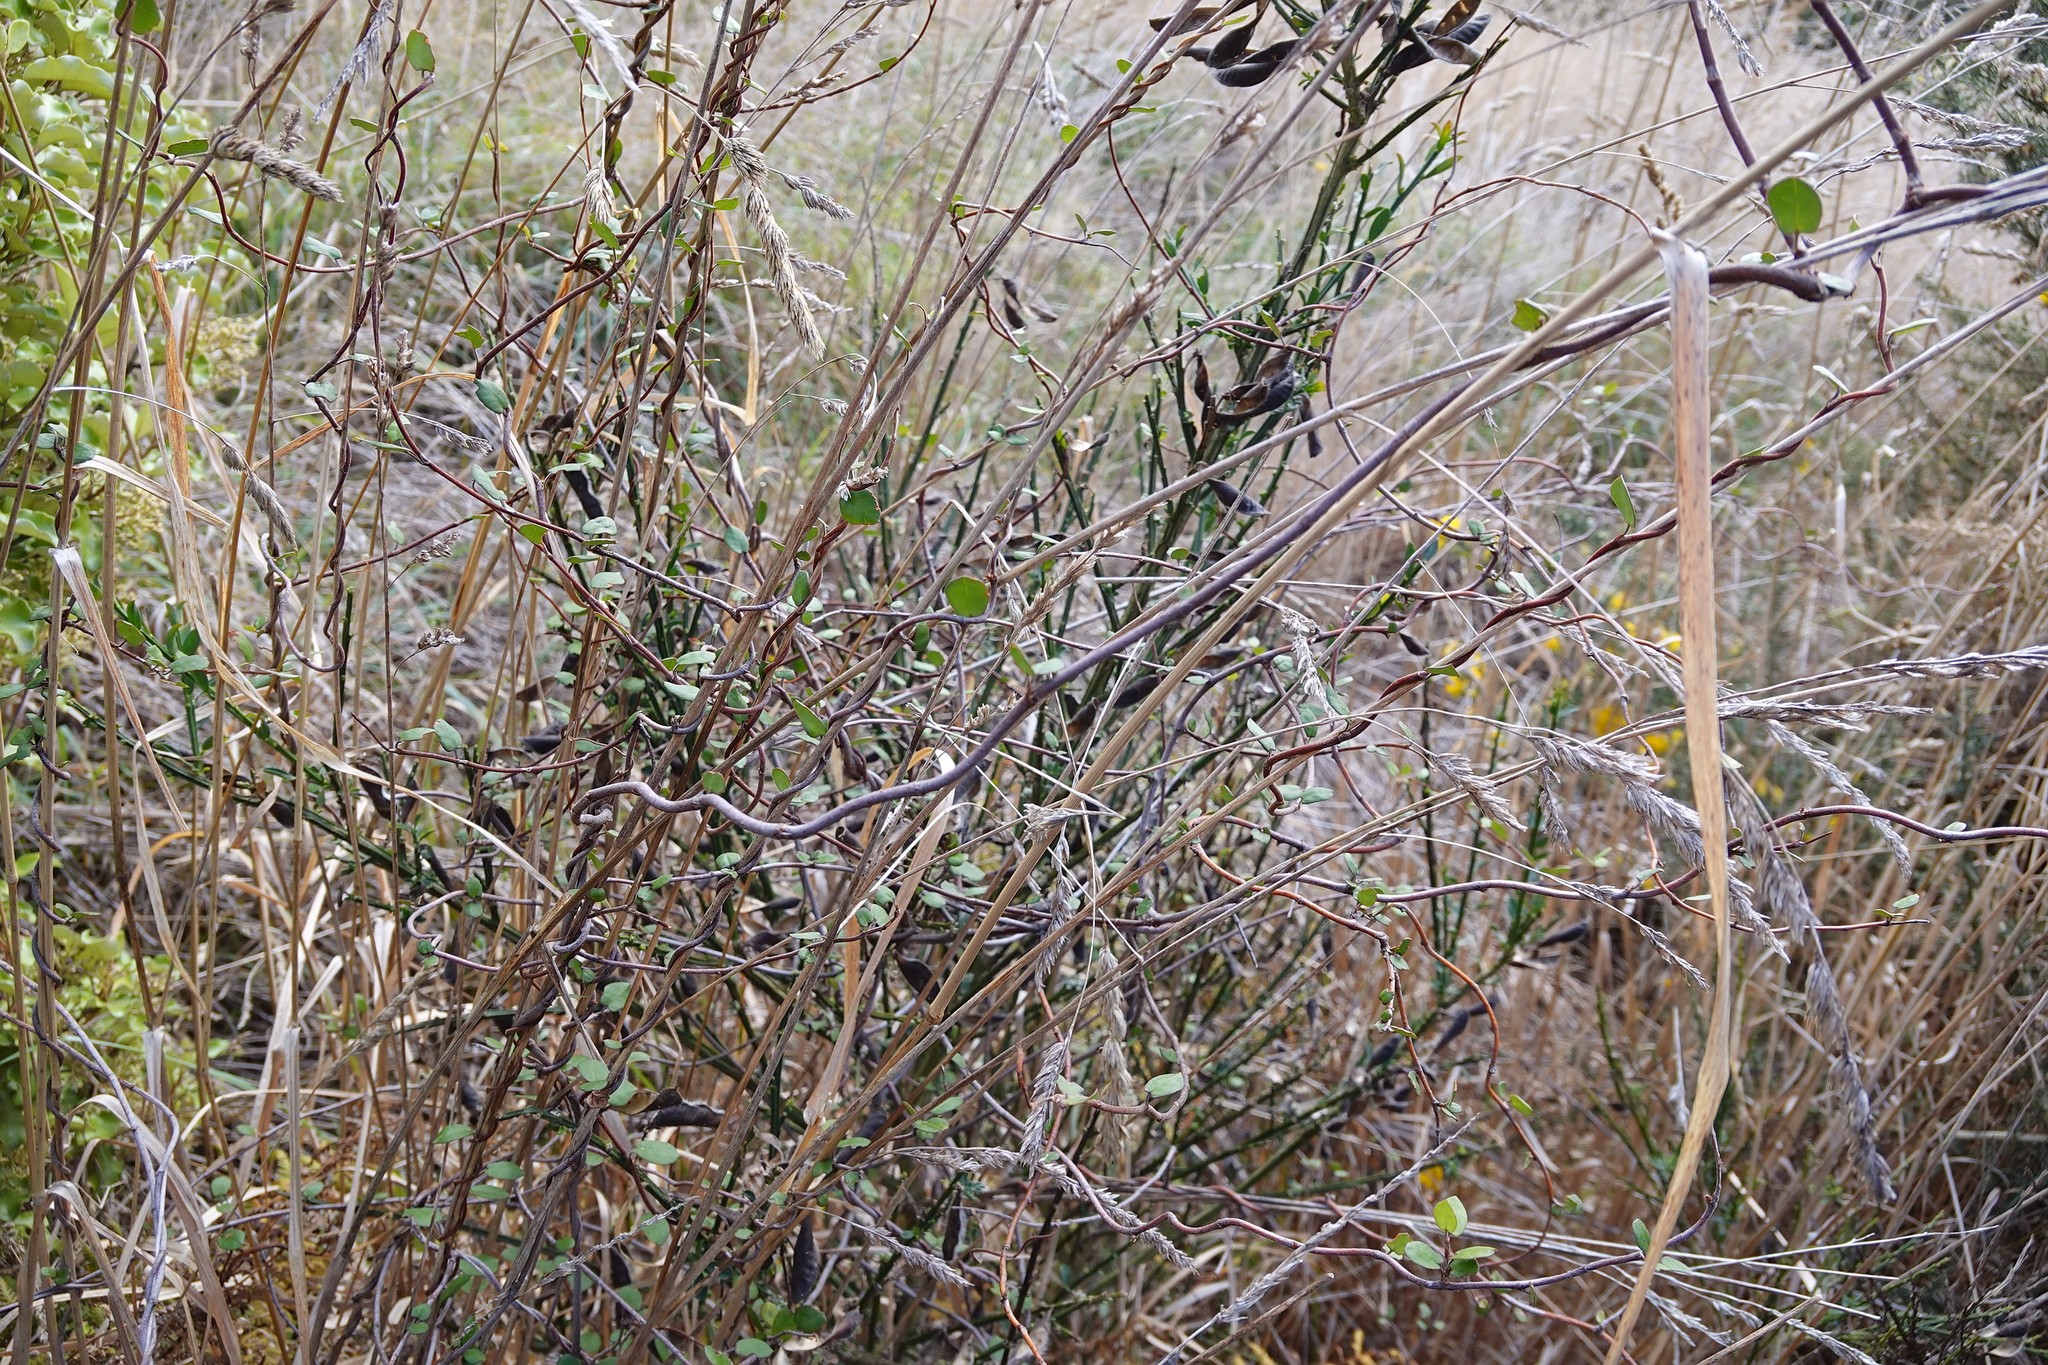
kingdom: Plantae
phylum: Tracheophyta
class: Magnoliopsida
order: Caryophyllales
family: Polygonaceae
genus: Muehlenbeckia
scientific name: Muehlenbeckia complexa
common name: Wireplant
